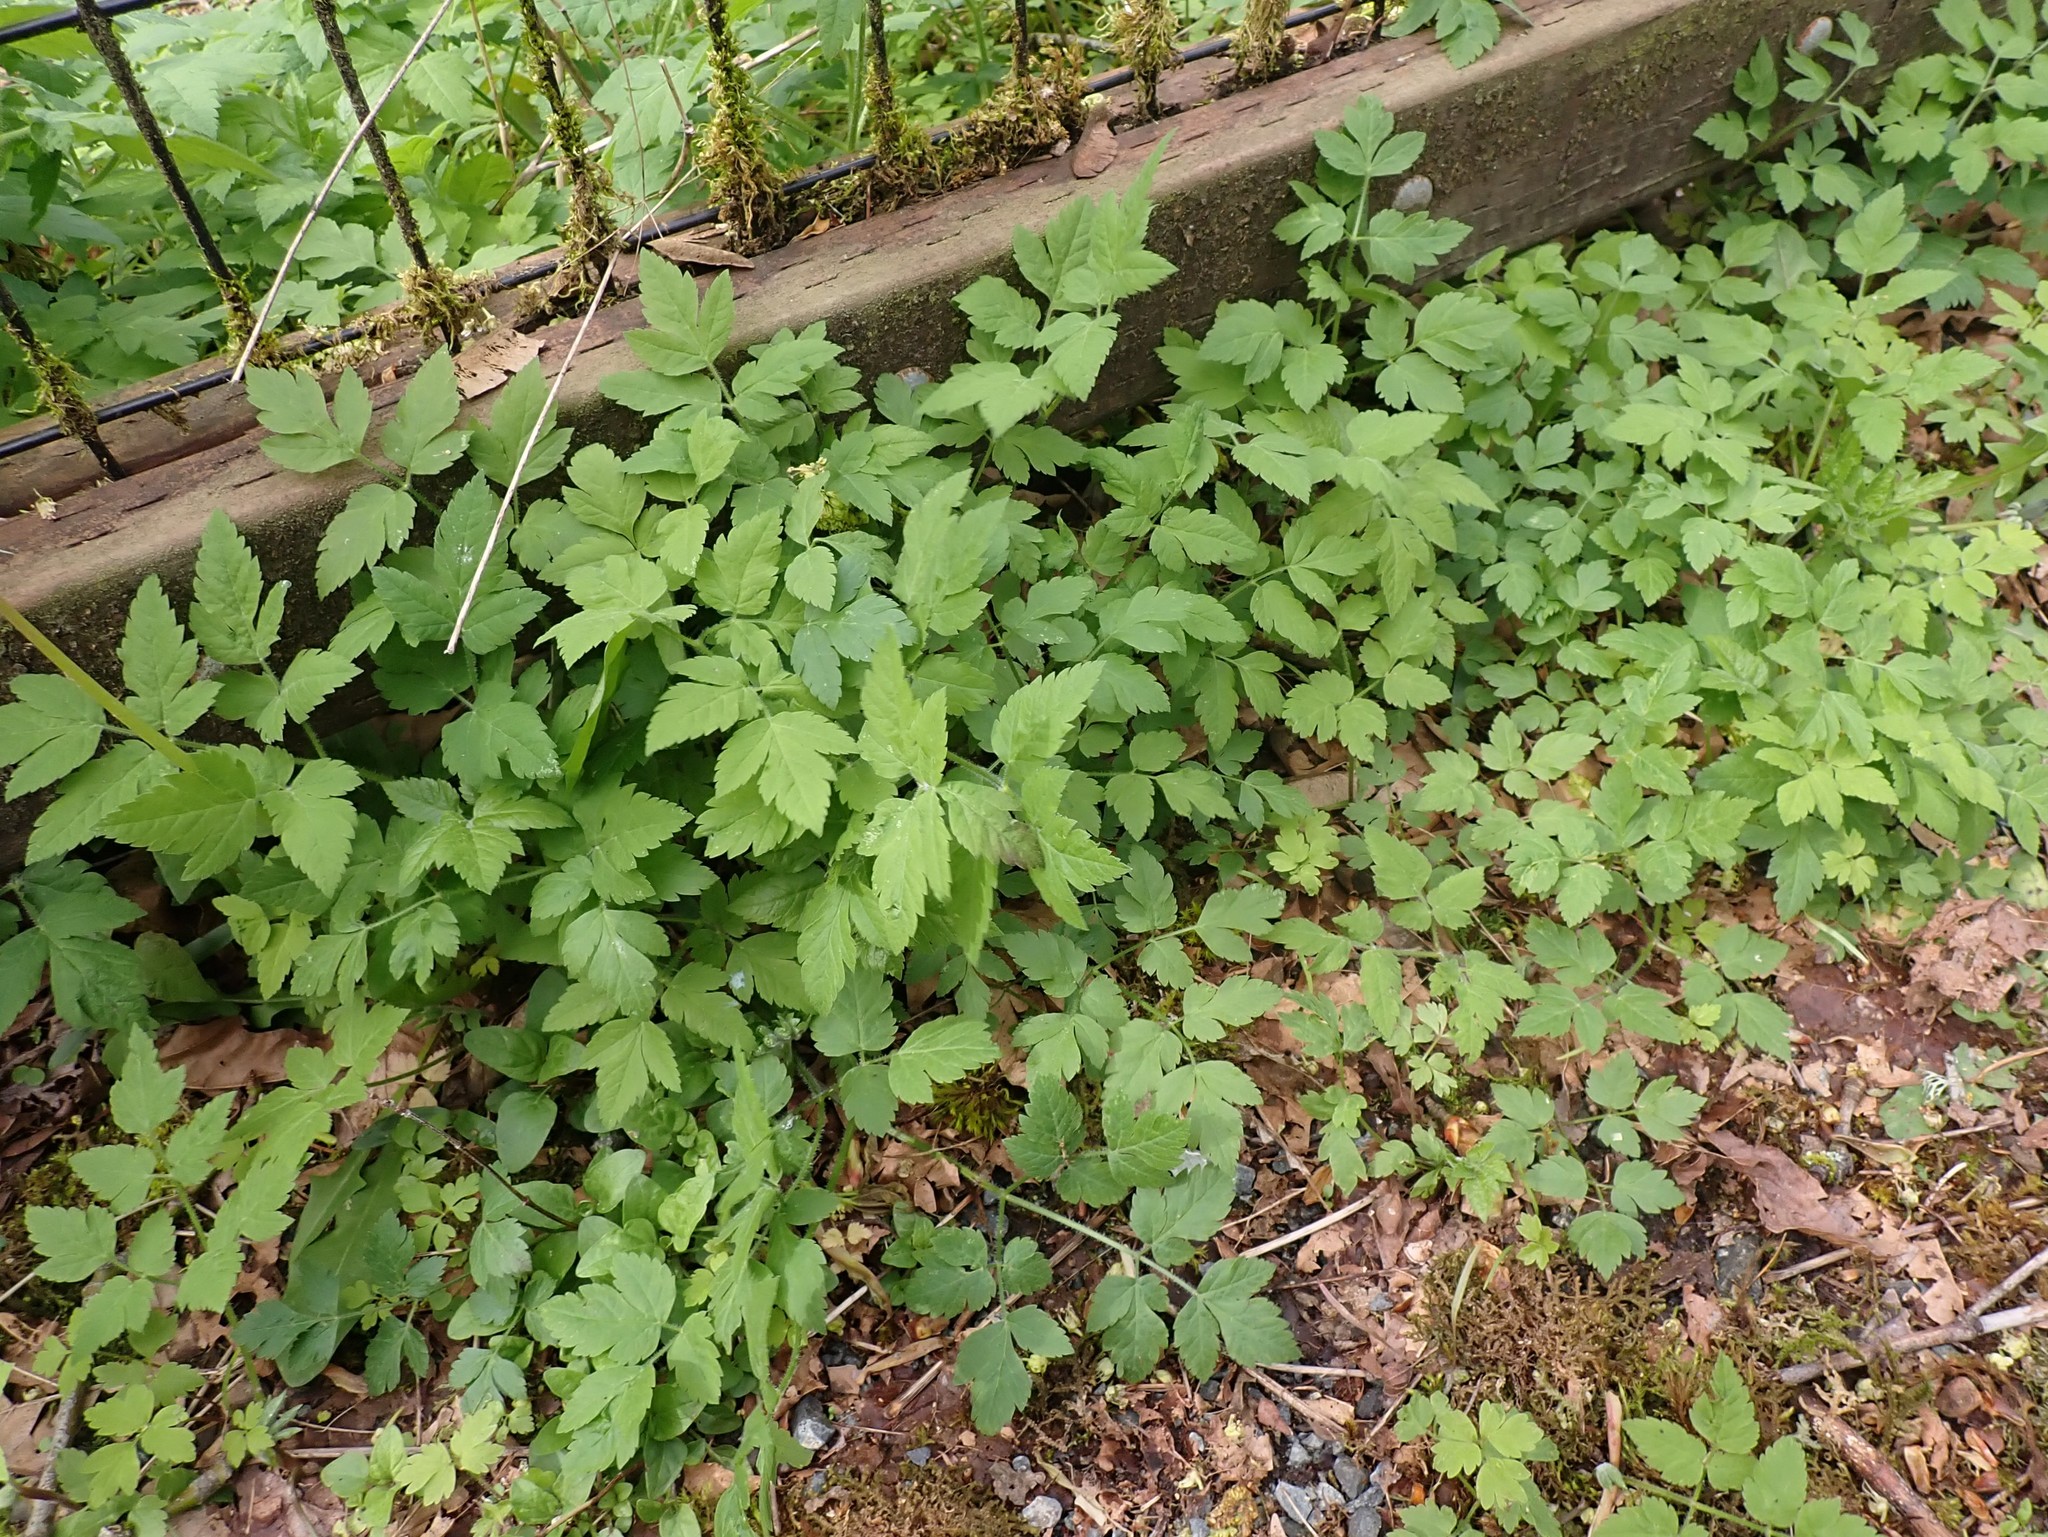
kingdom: Plantae
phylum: Tracheophyta
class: Magnoliopsida
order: Apiales
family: Apiaceae
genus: Osmorhiza
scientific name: Osmorhiza berteroi
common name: Mountain sweet cicely
